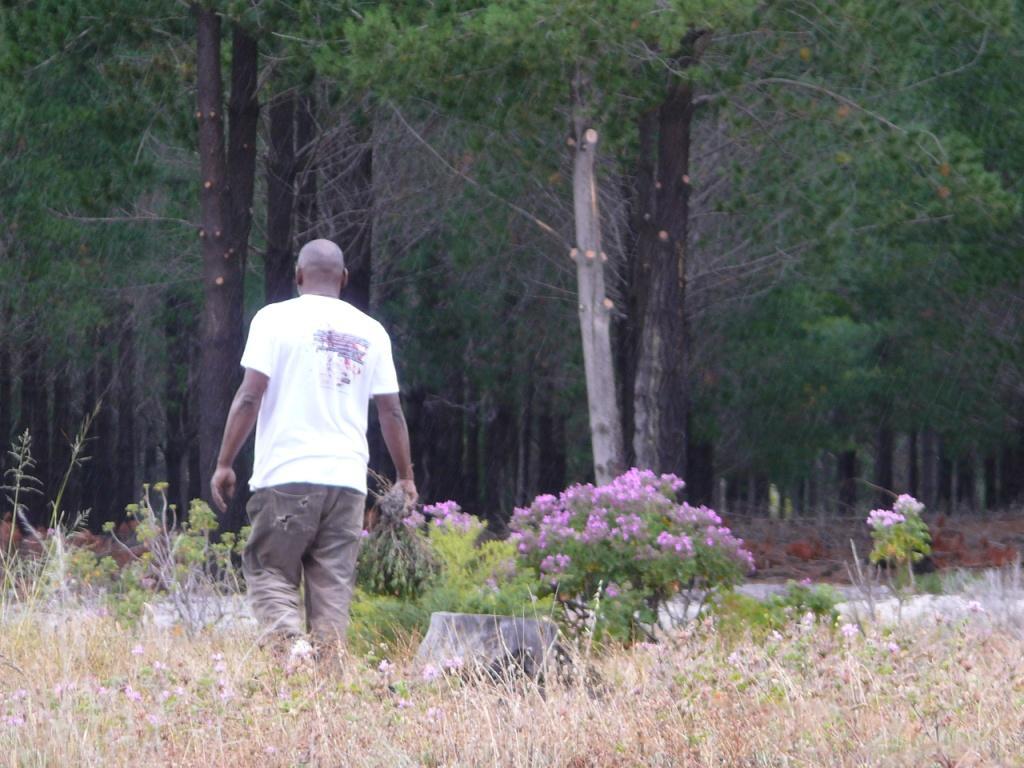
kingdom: Plantae
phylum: Tracheophyta
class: Magnoliopsida
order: Caryophyllales
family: Aizoaceae
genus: Lampranthus
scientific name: Lampranthus bicolor
